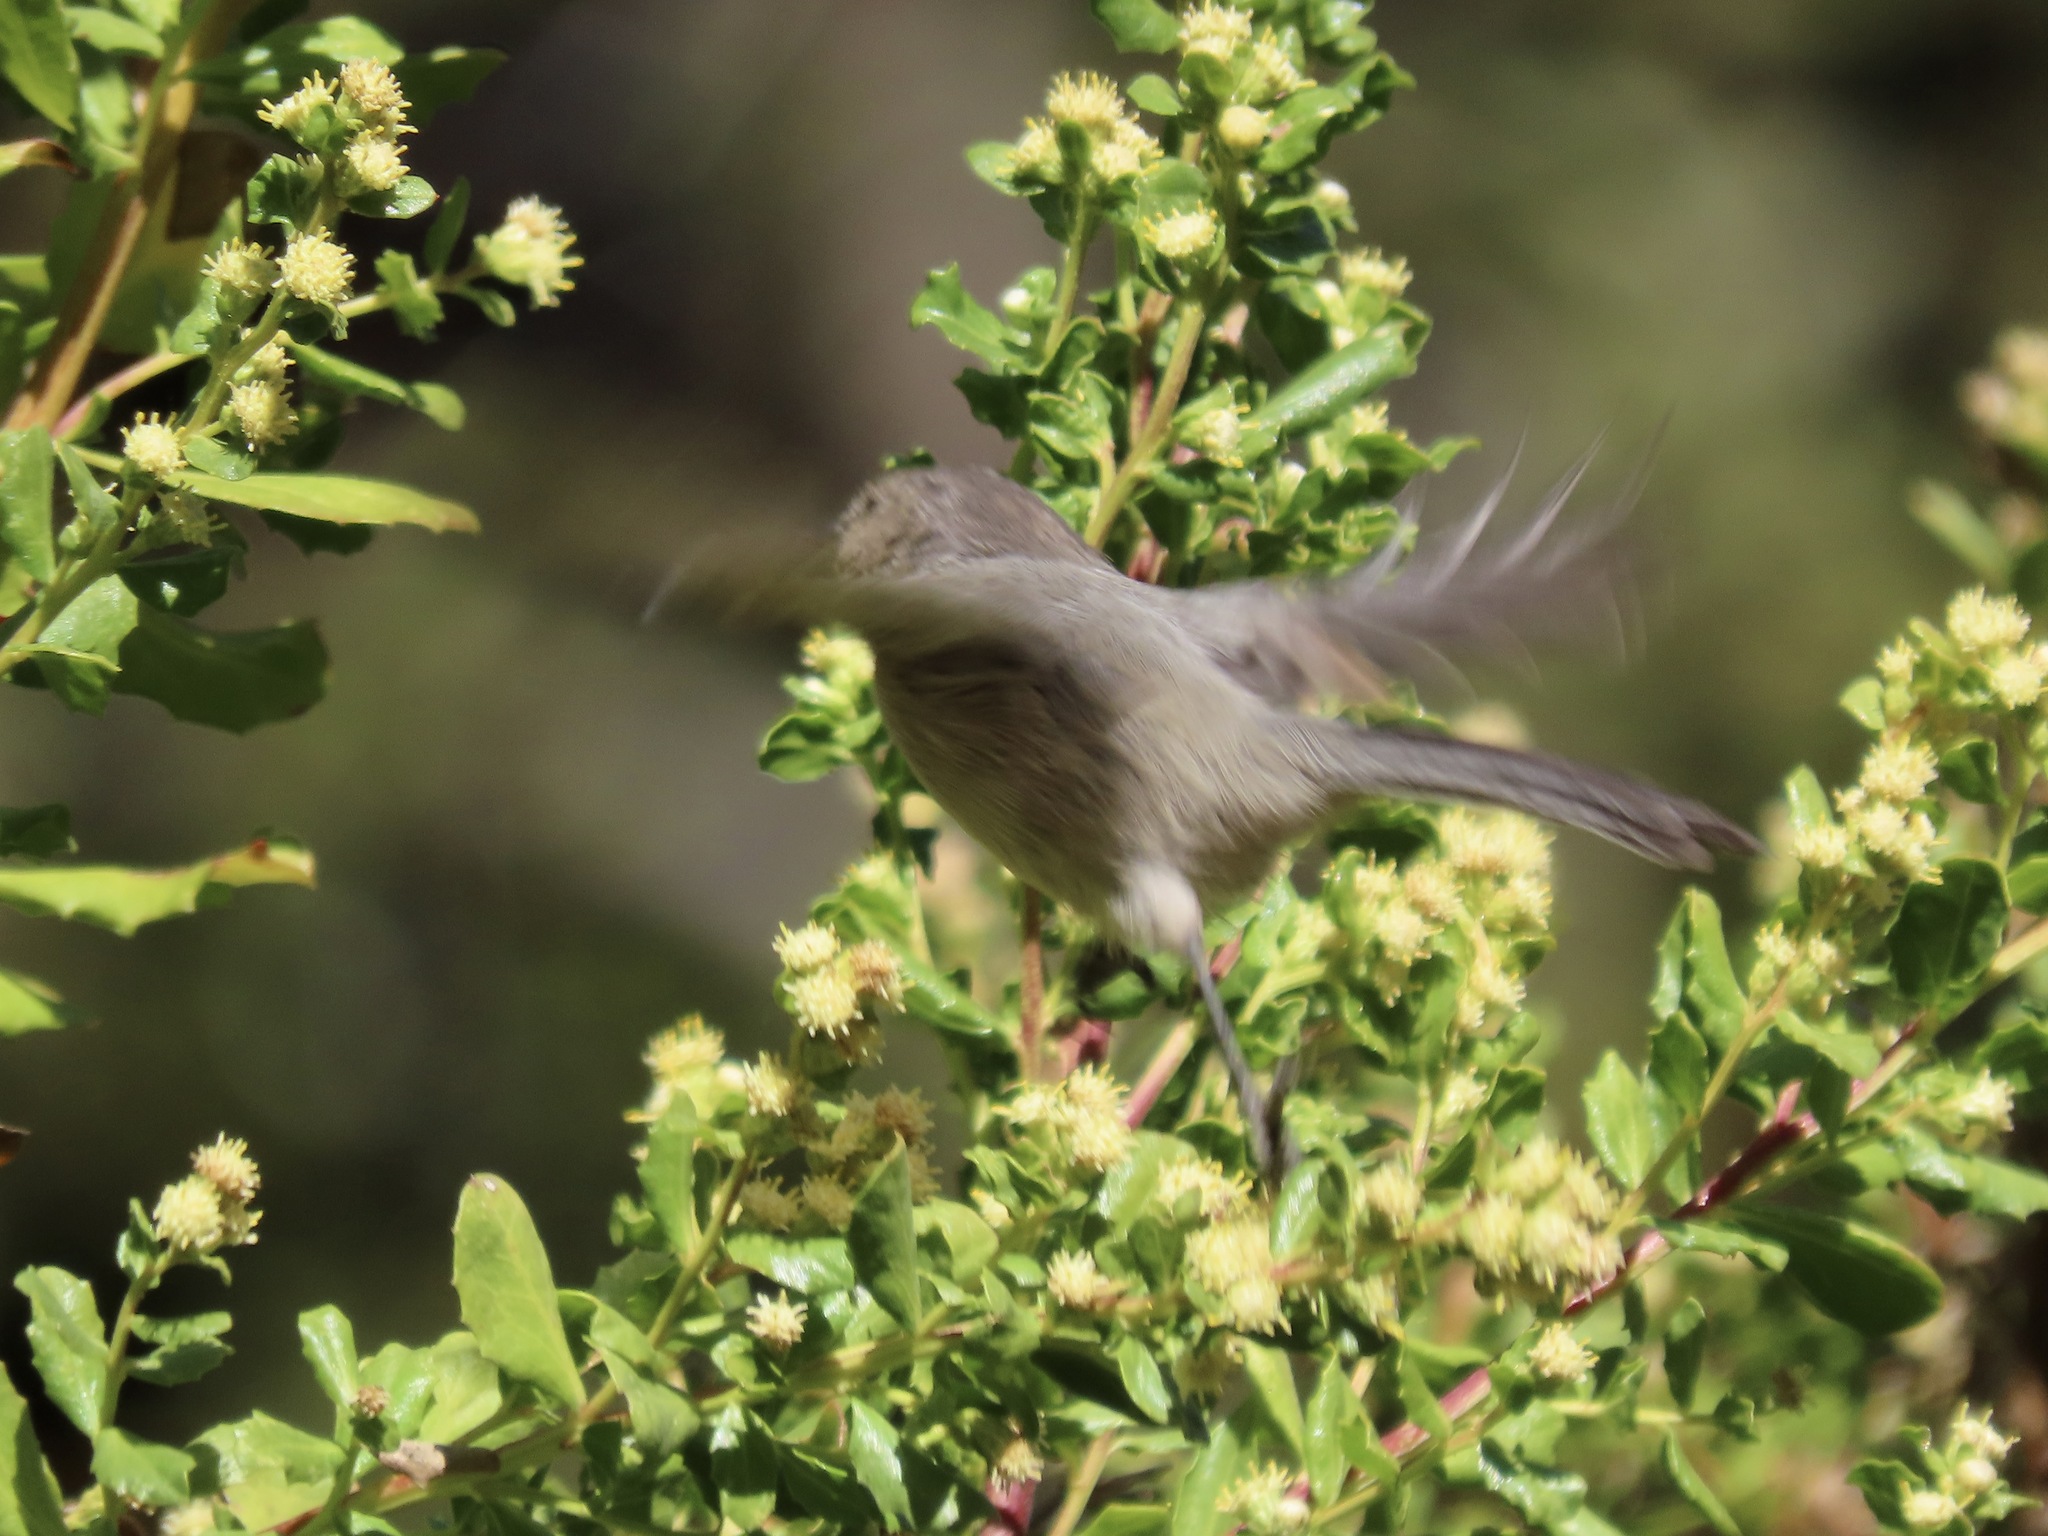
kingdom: Animalia
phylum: Chordata
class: Aves
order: Passeriformes
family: Aegithalidae
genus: Psaltriparus
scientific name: Psaltriparus minimus
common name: American bushtit
